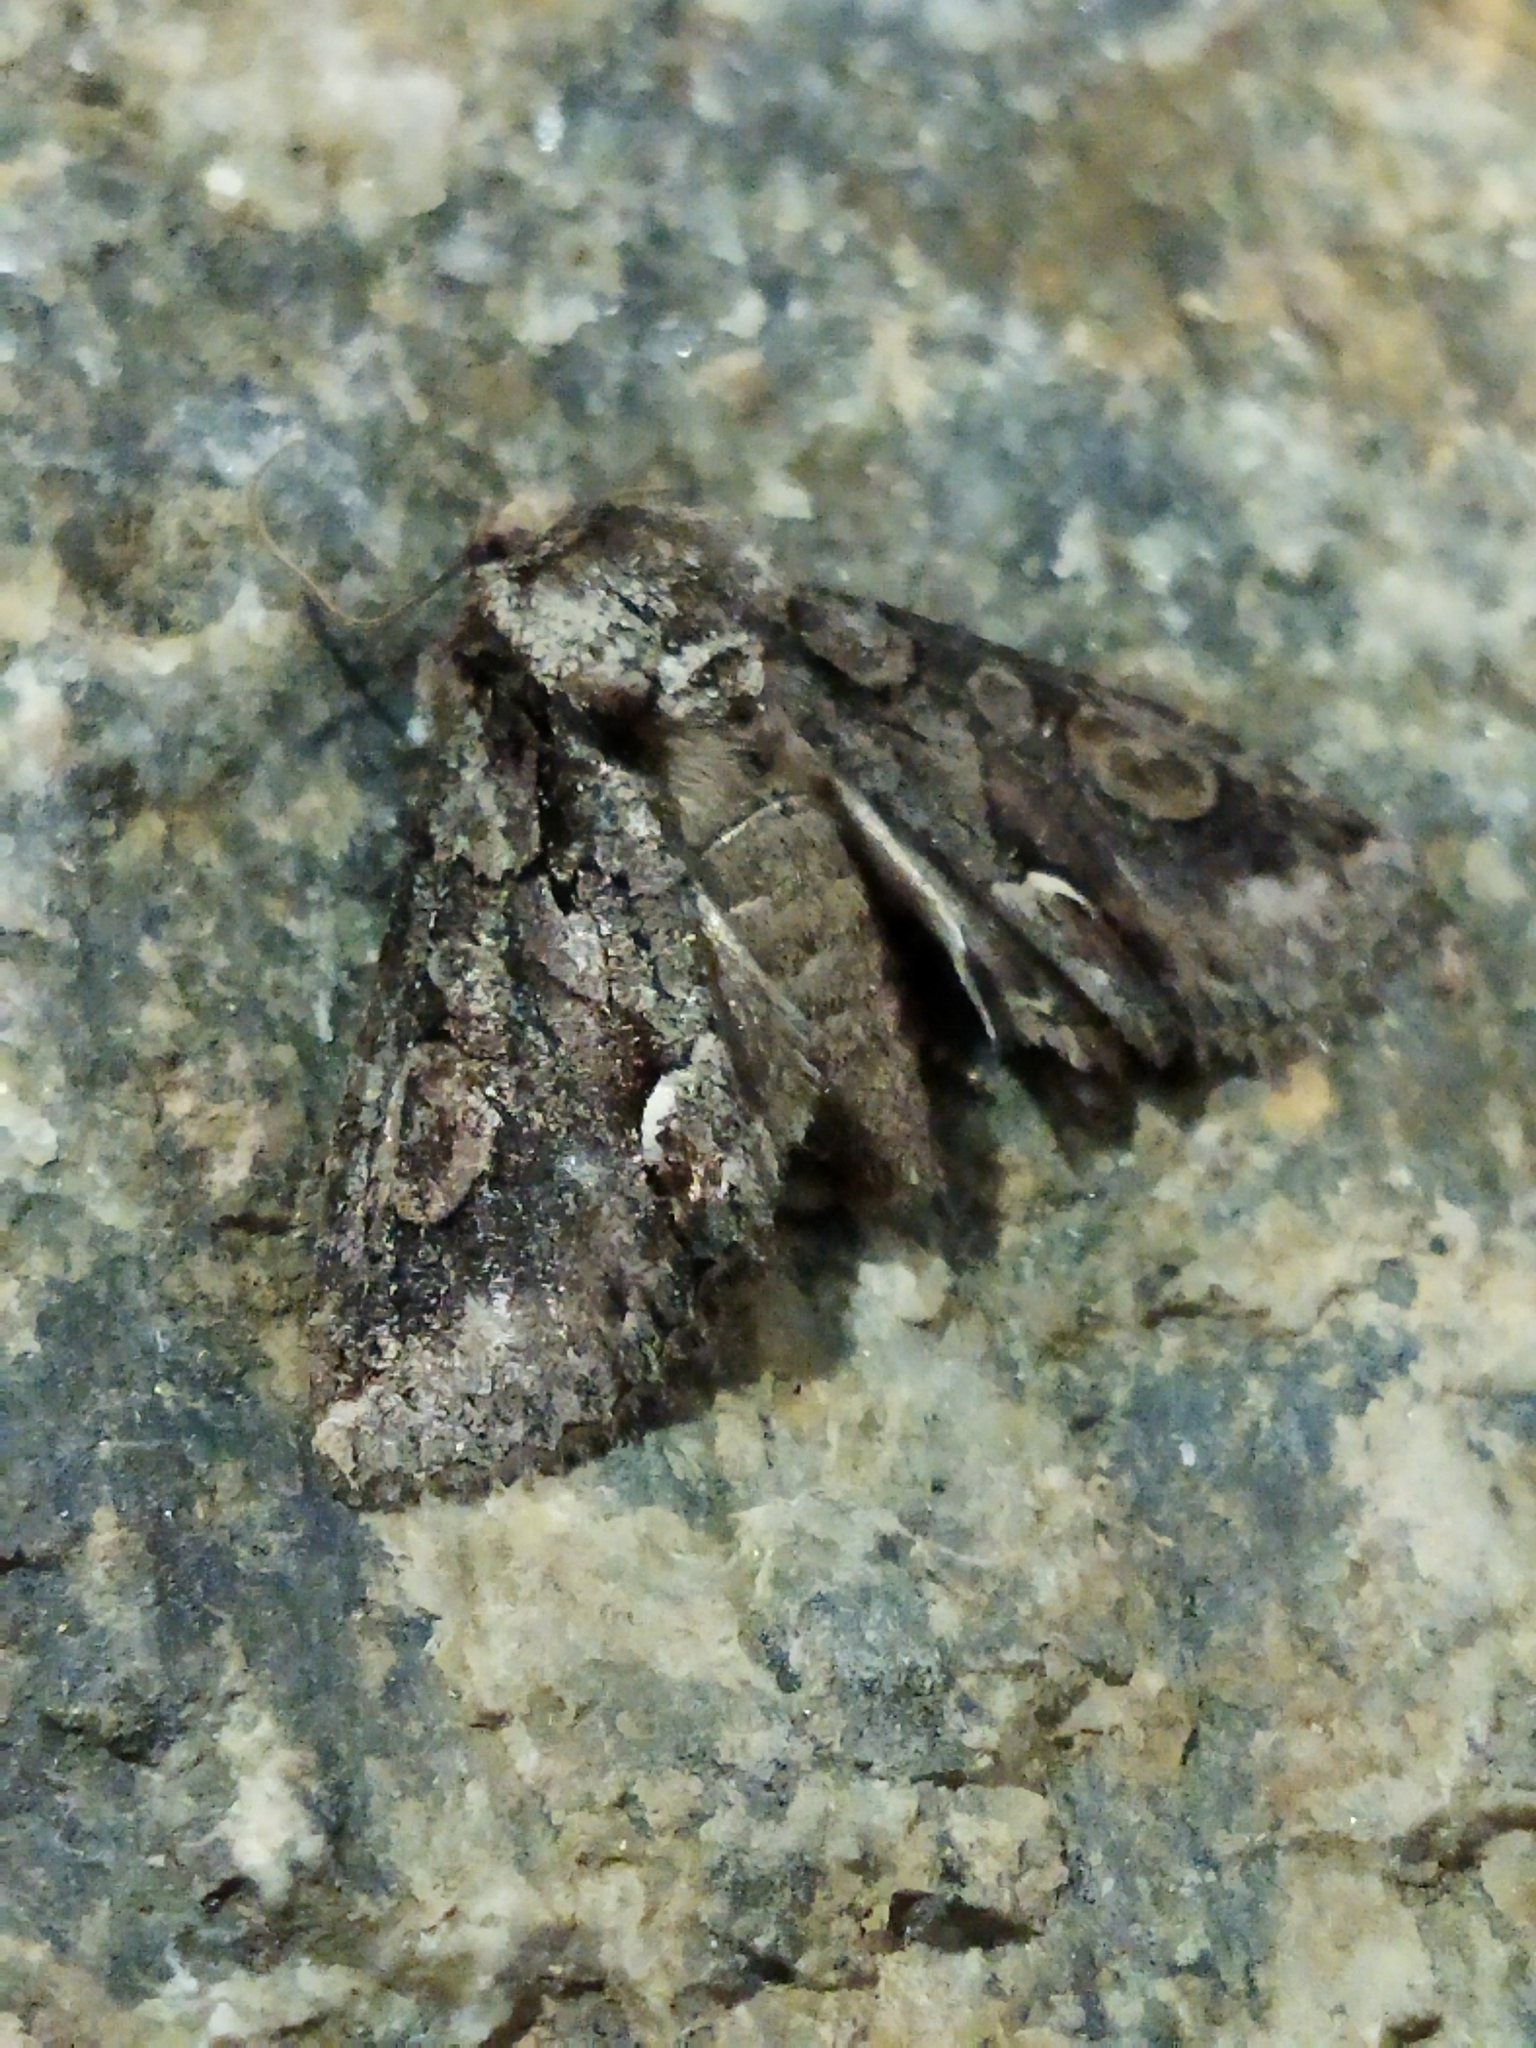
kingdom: Animalia
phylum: Arthropoda
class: Insecta
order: Lepidoptera
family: Noctuidae
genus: Allophyes
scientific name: Allophyes oxyacanthae
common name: Green-brindled crescent
